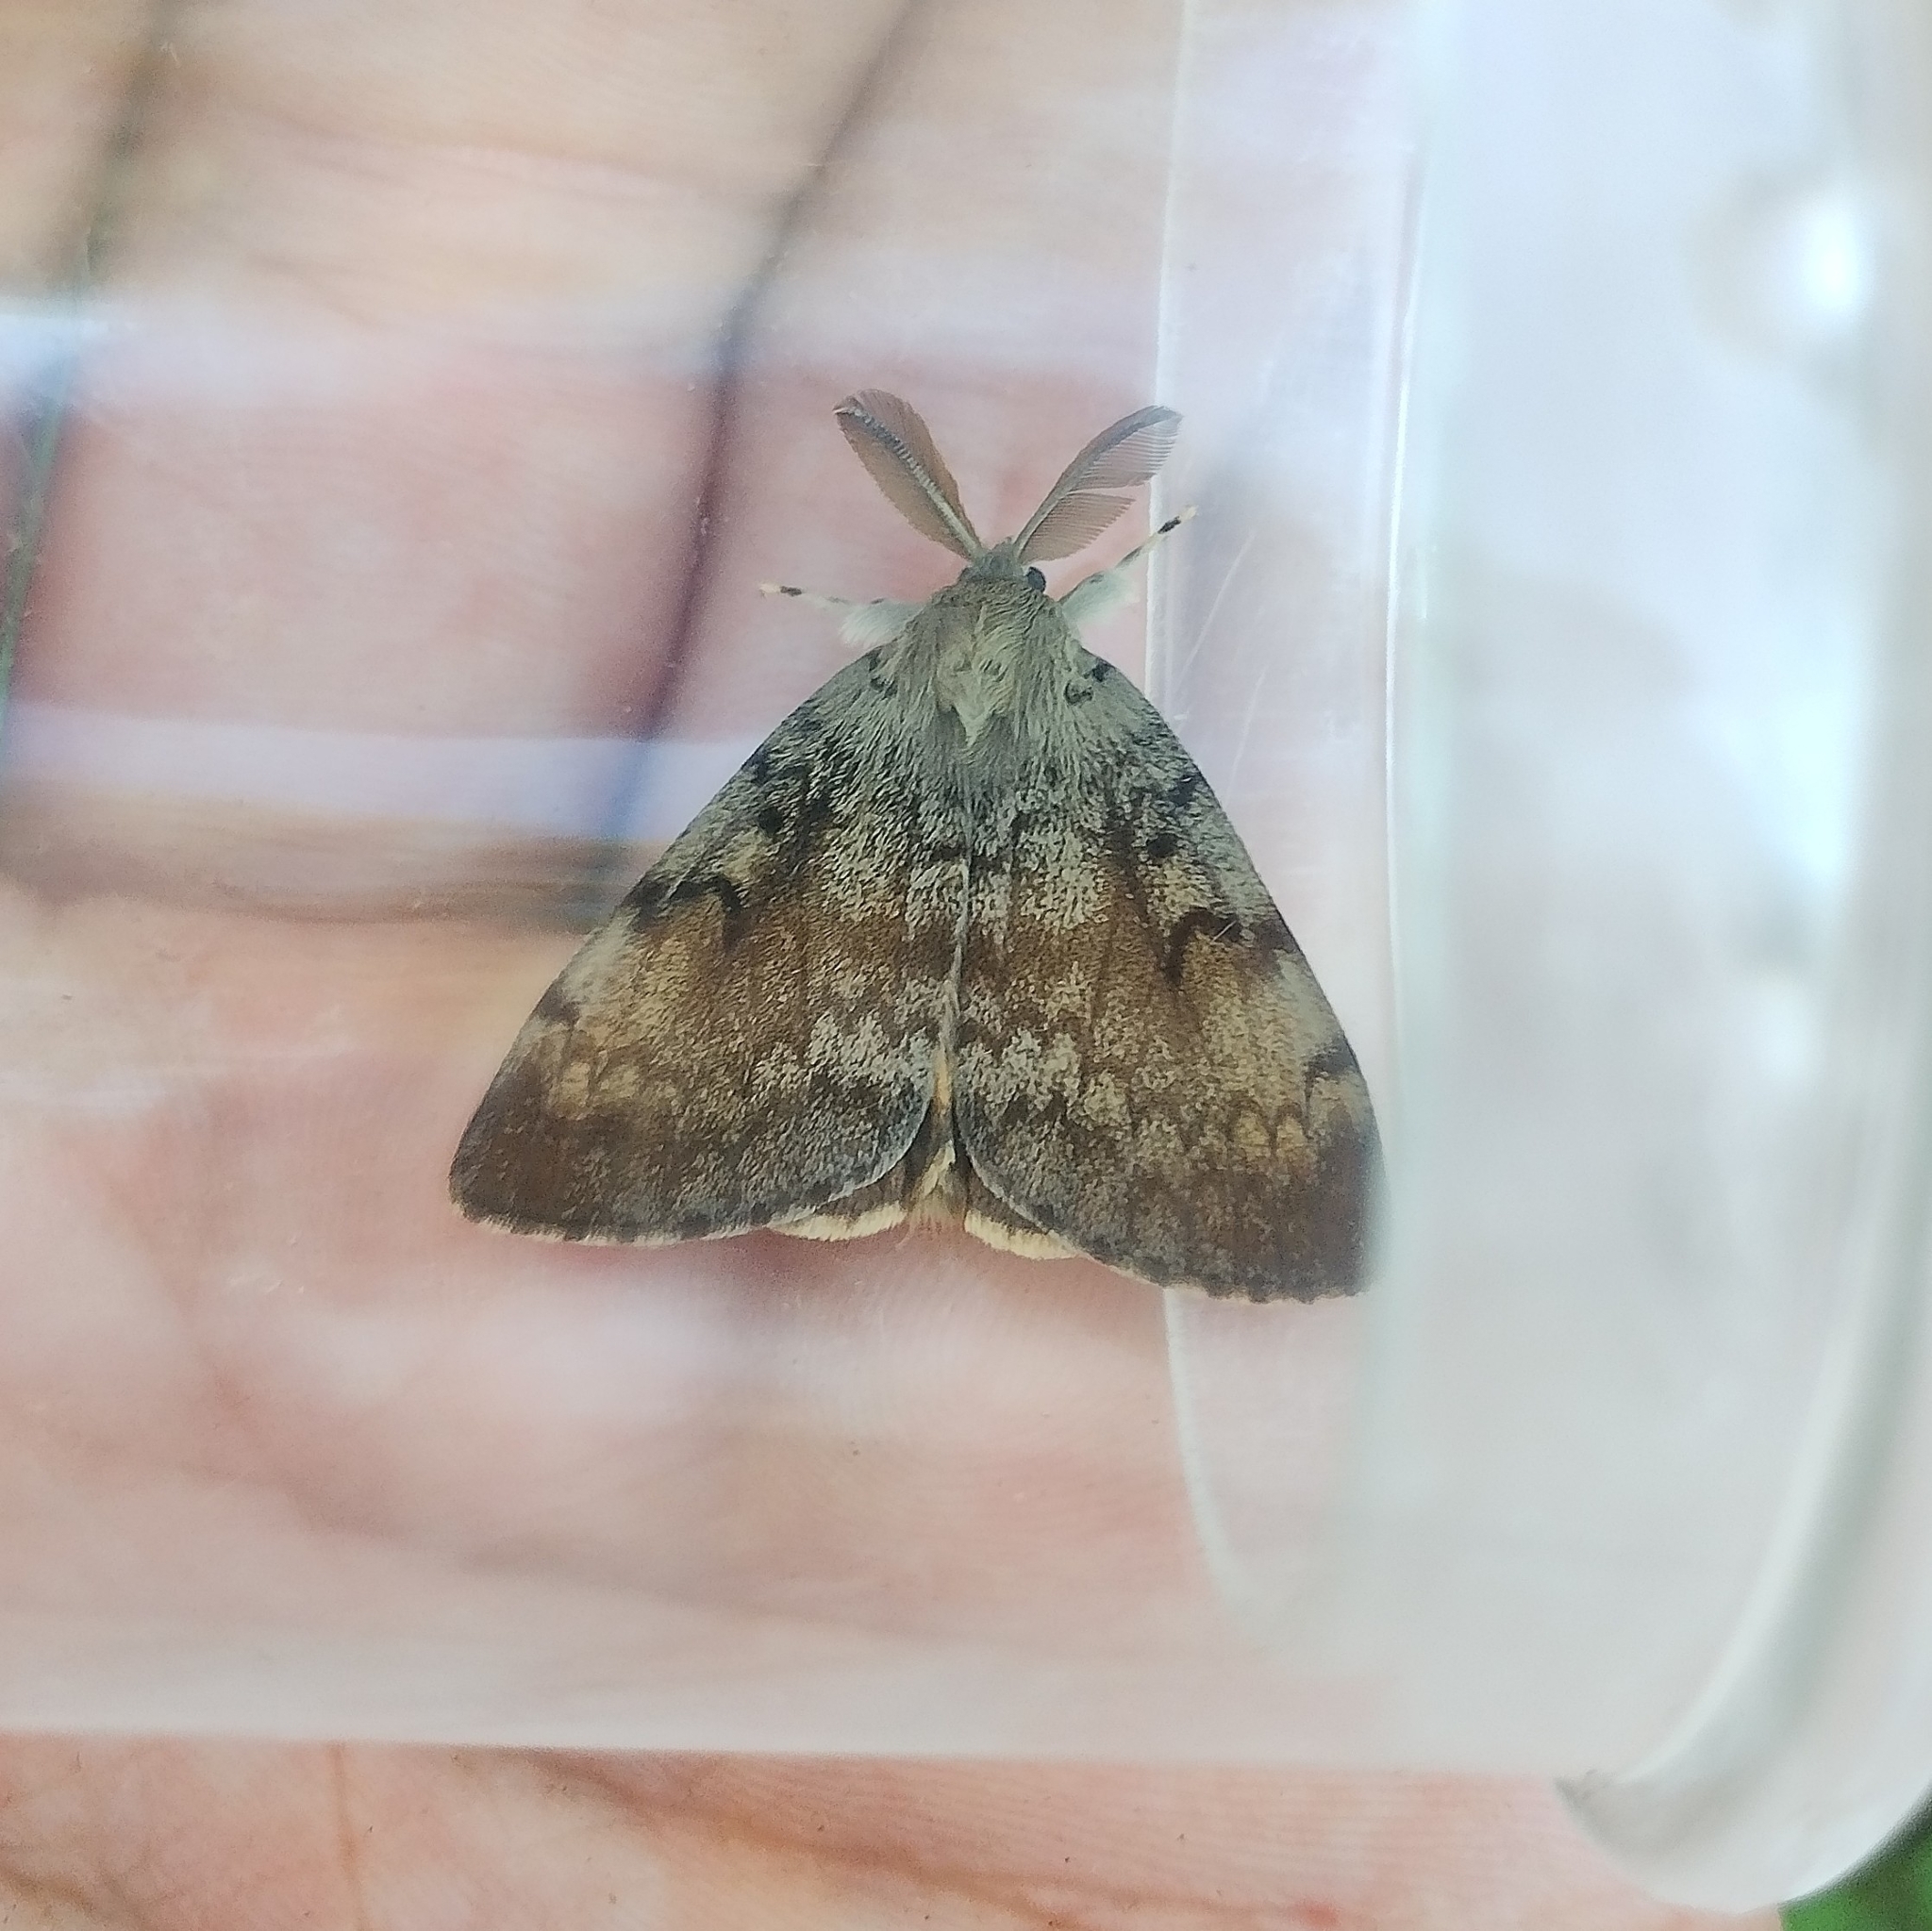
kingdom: Animalia
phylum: Arthropoda
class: Insecta
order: Lepidoptera
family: Erebidae
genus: Lymantria
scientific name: Lymantria dispar
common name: Gypsy moth
